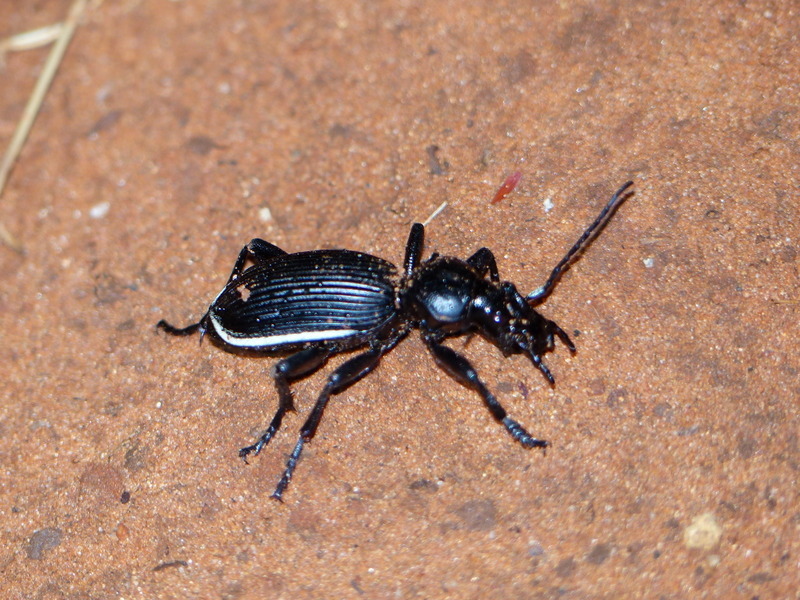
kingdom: Animalia
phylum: Arthropoda
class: Insecta
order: Coleoptera
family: Carabidae
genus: Anthia
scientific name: Anthia fornasinii
